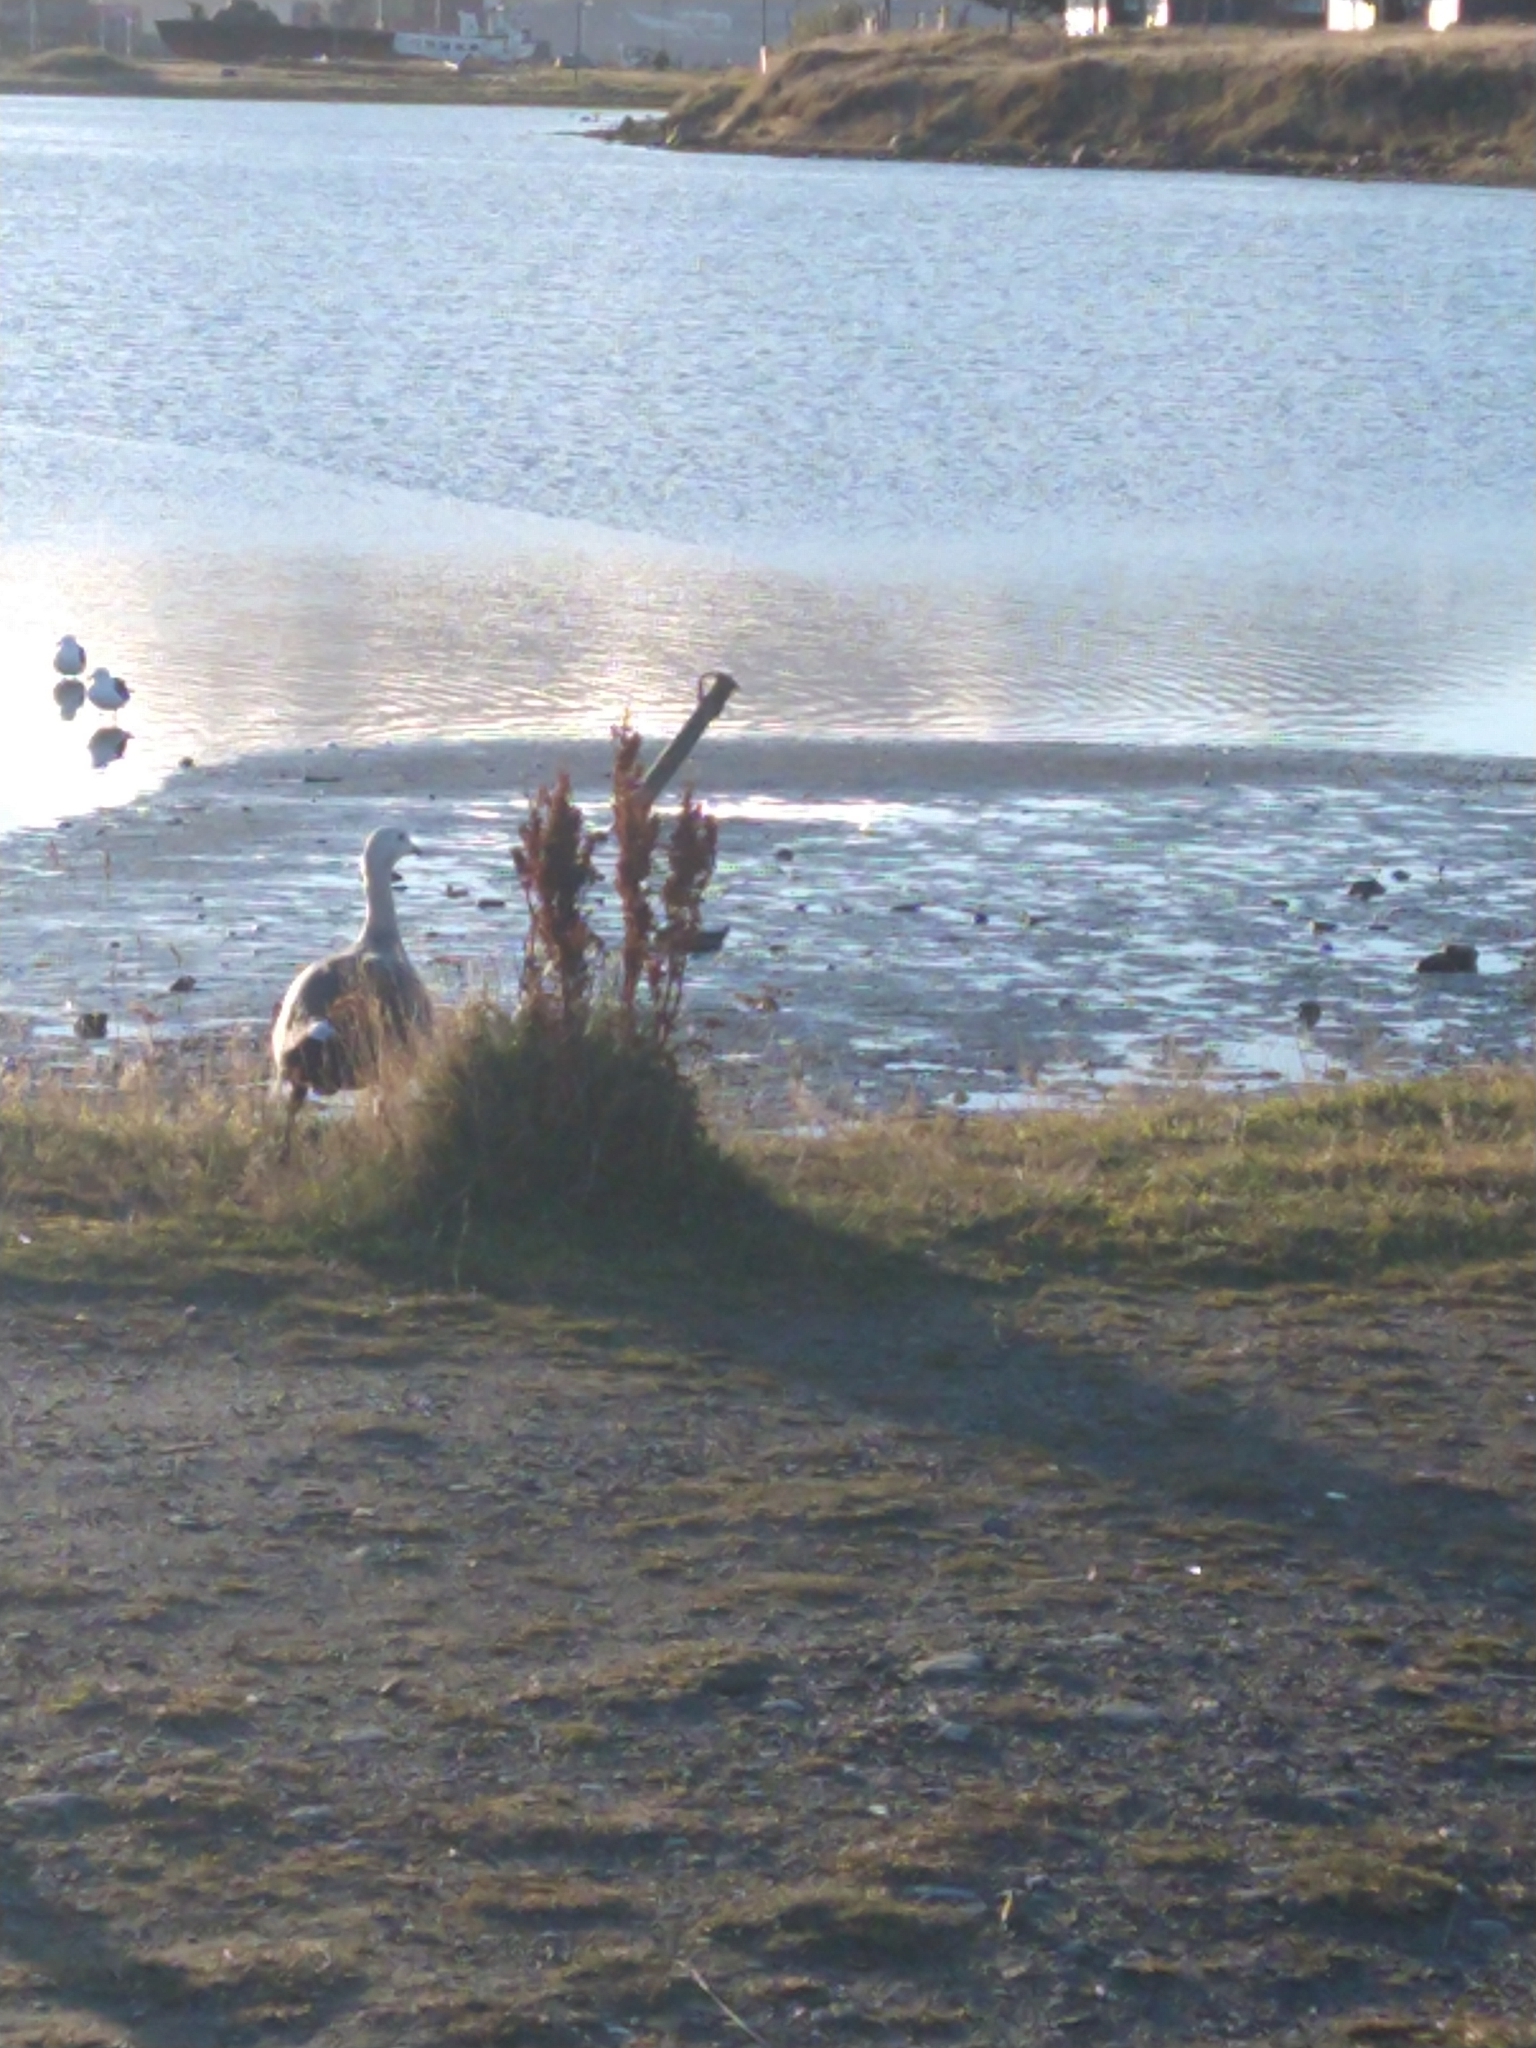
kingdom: Animalia
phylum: Chordata
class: Aves
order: Anseriformes
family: Anatidae
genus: Chloephaga
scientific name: Chloephaga picta
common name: Upland goose
